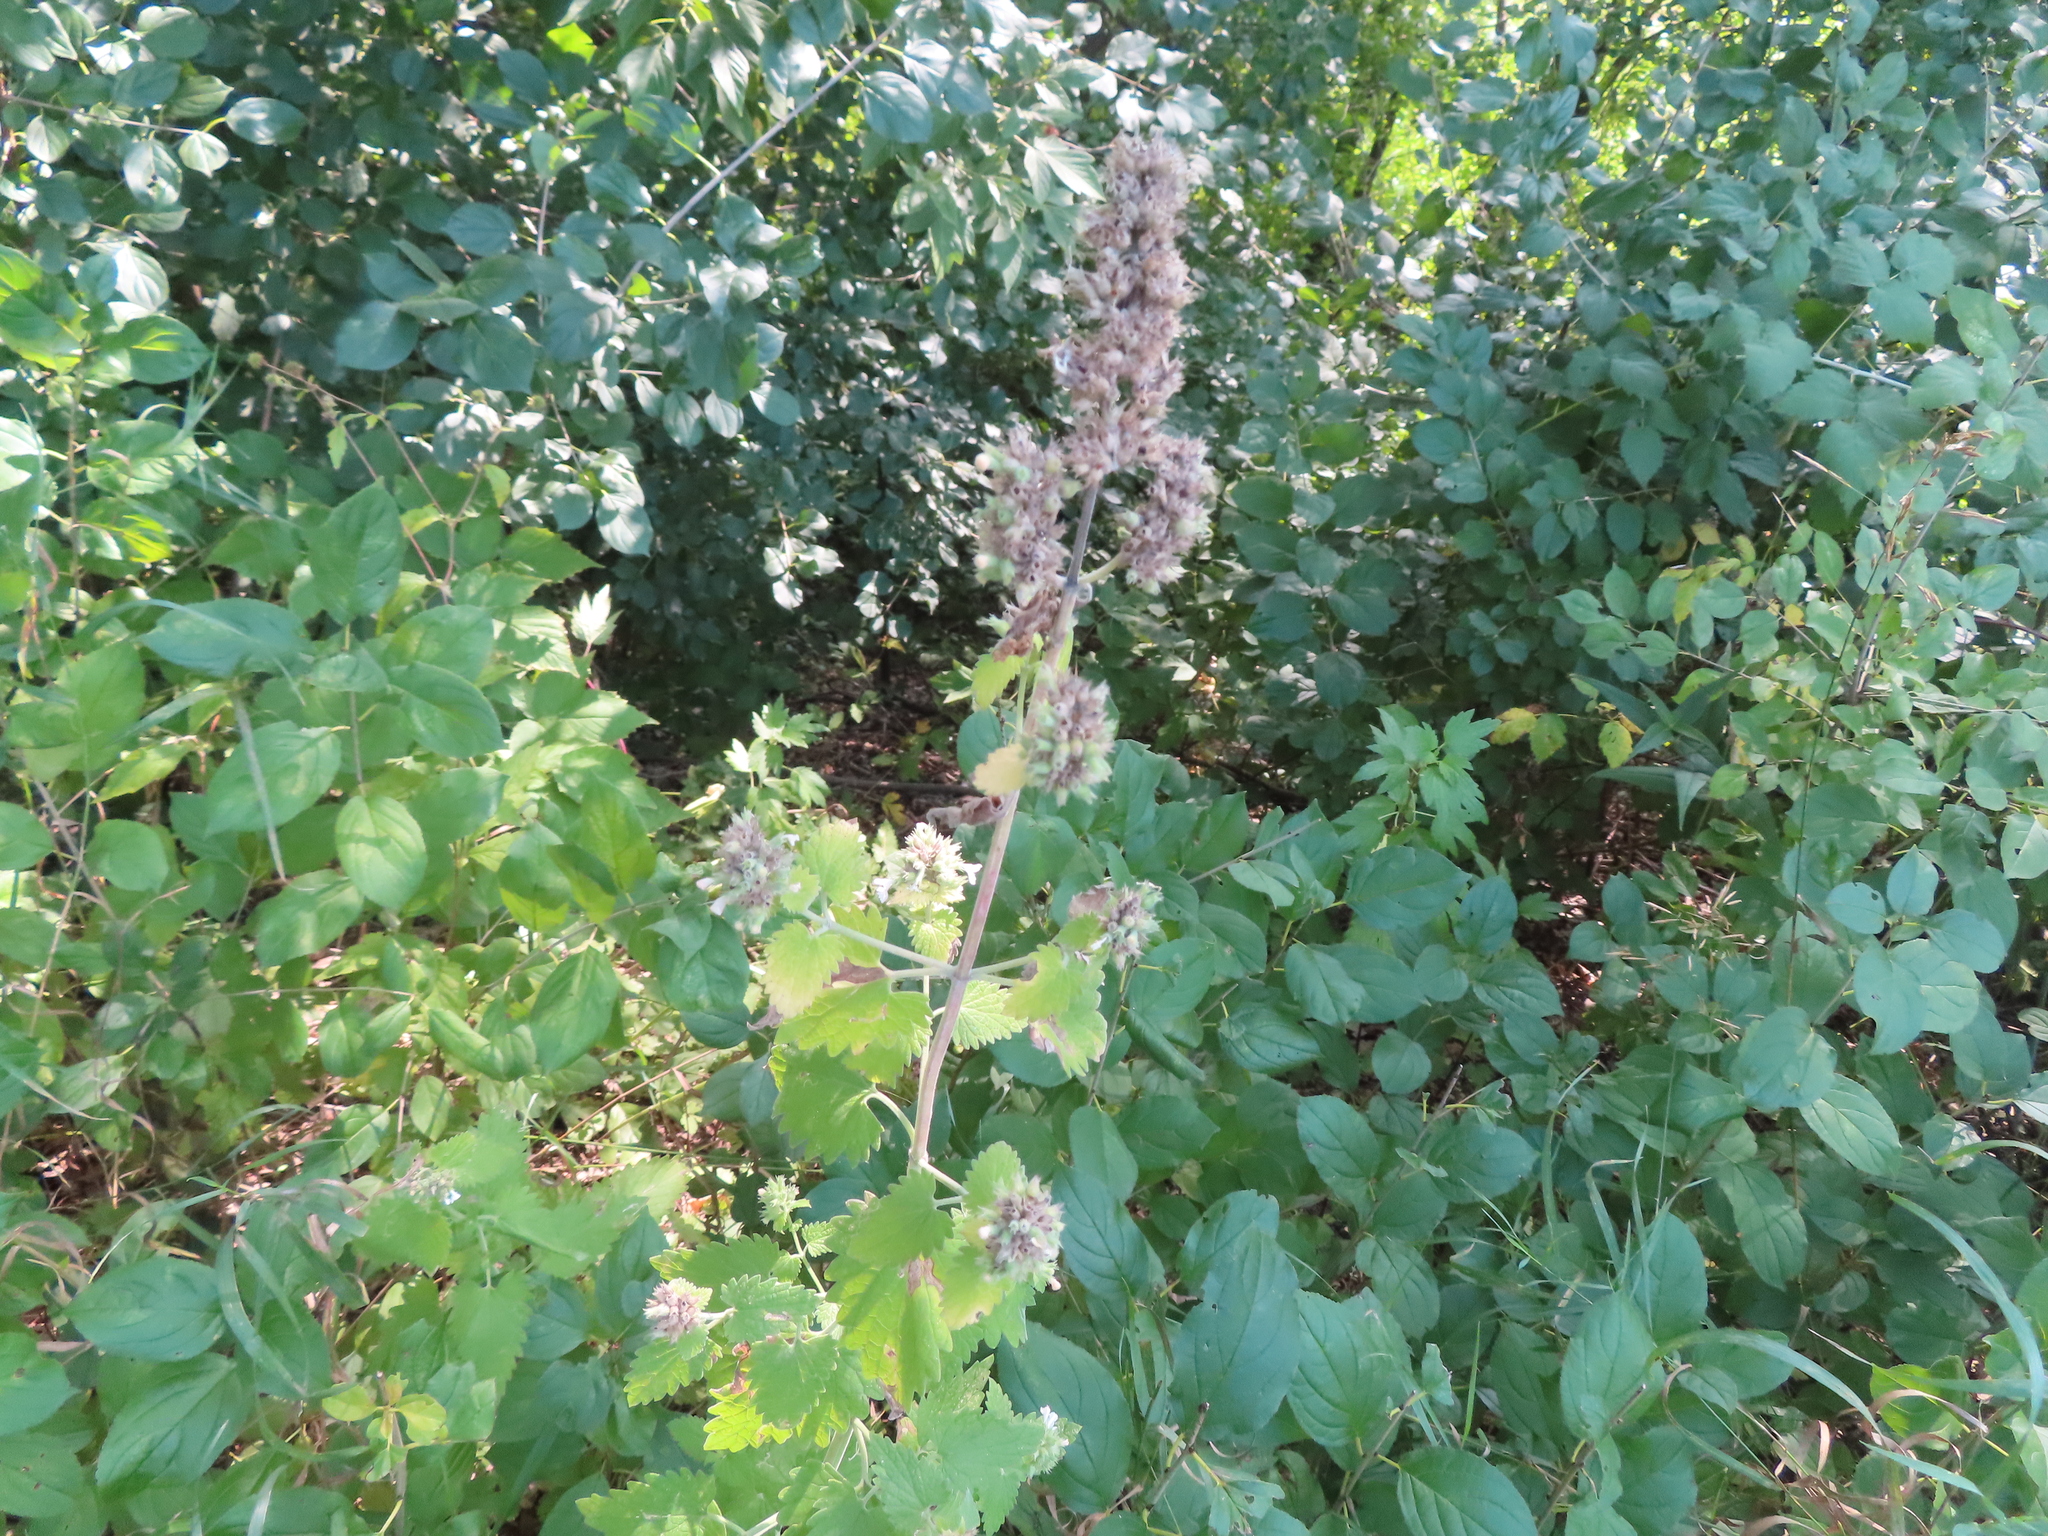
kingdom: Plantae
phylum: Tracheophyta
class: Magnoliopsida
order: Lamiales
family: Lamiaceae
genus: Nepeta
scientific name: Nepeta cataria
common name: Catnip
